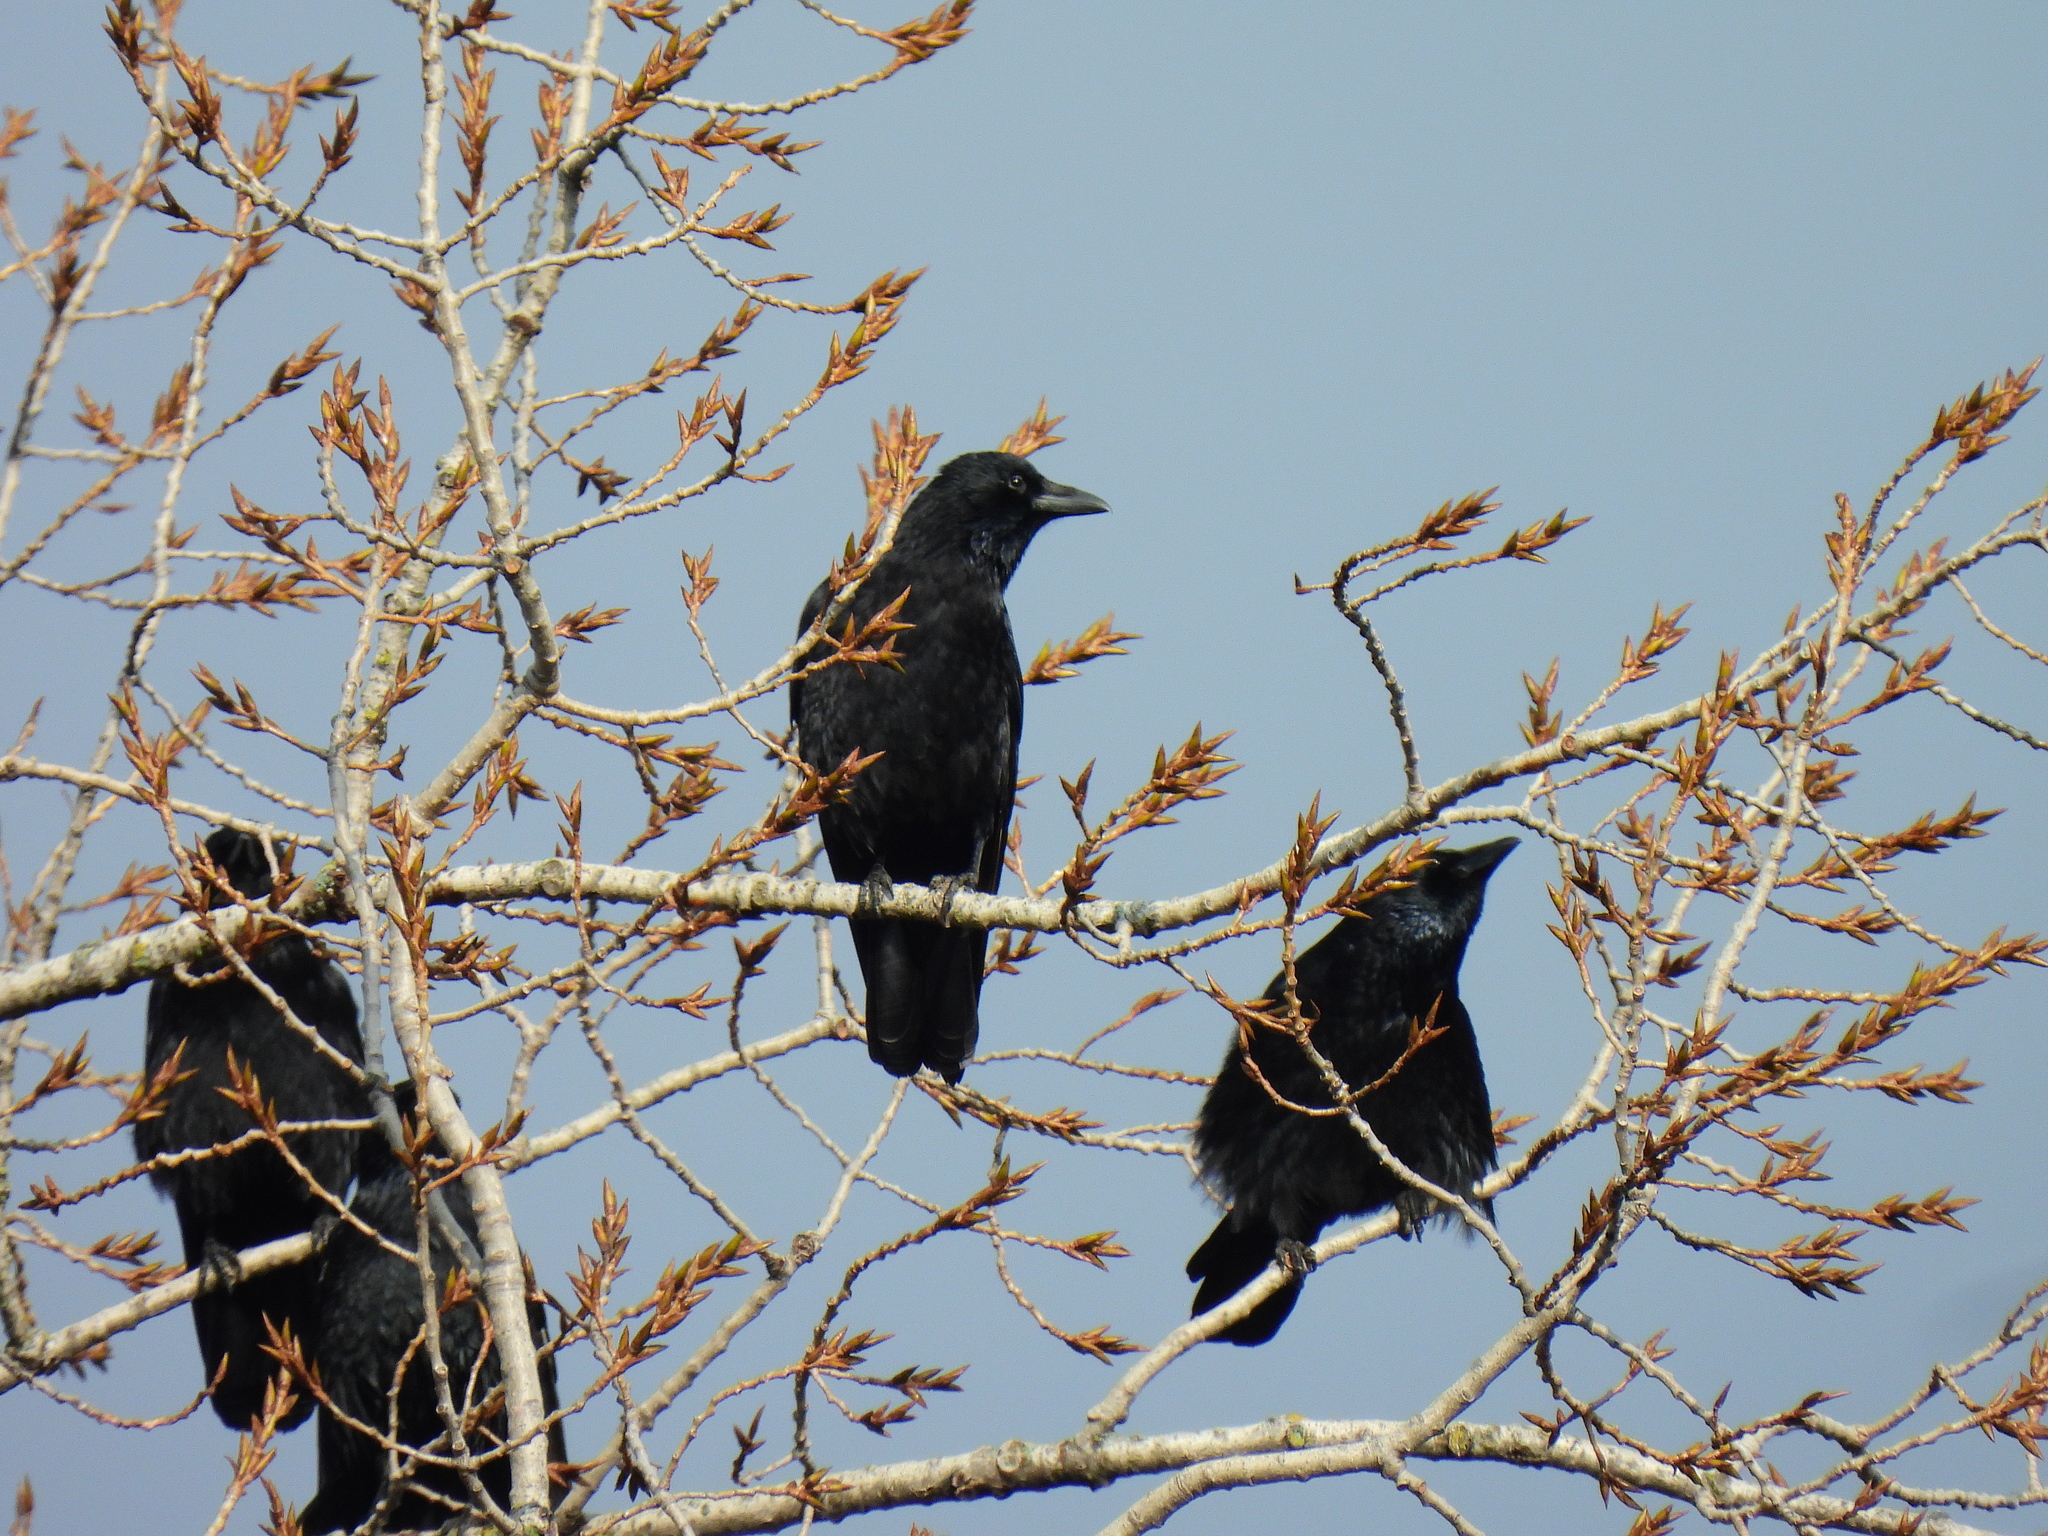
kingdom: Animalia
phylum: Chordata
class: Aves
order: Passeriformes
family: Corvidae
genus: Corvus
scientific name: Corvus corone
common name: Carrion crow
